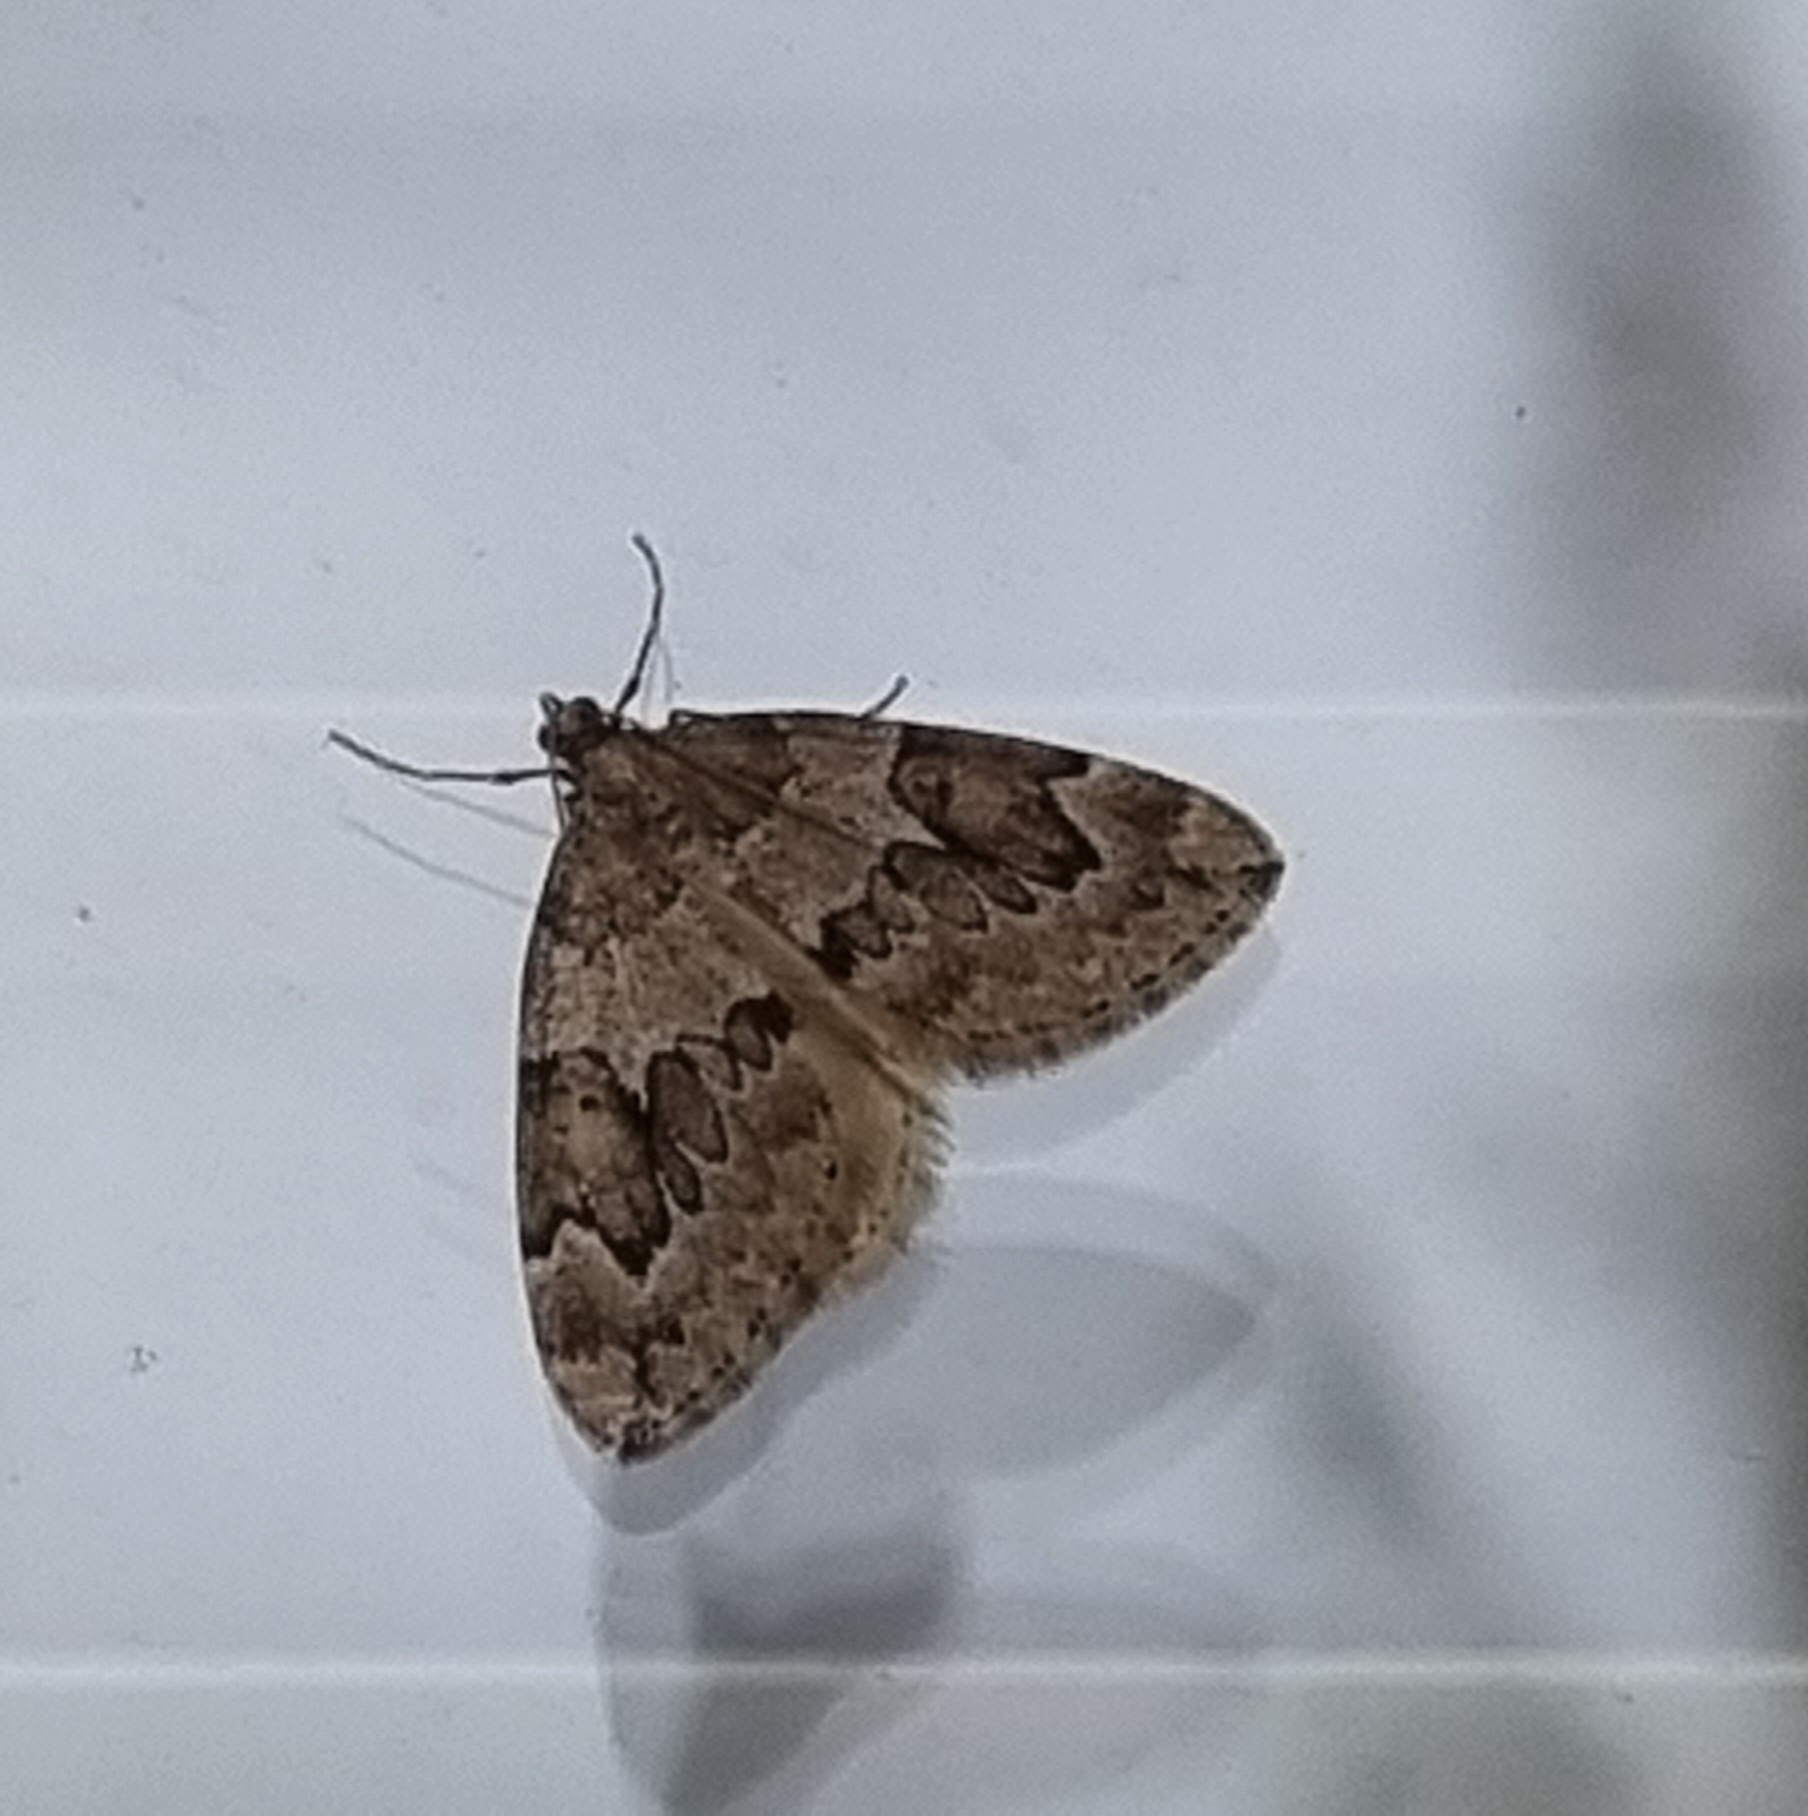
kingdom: Animalia
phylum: Arthropoda
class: Insecta
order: Lepidoptera
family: Geometridae
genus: Thera
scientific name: Thera juniperata
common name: Juniper carpet
